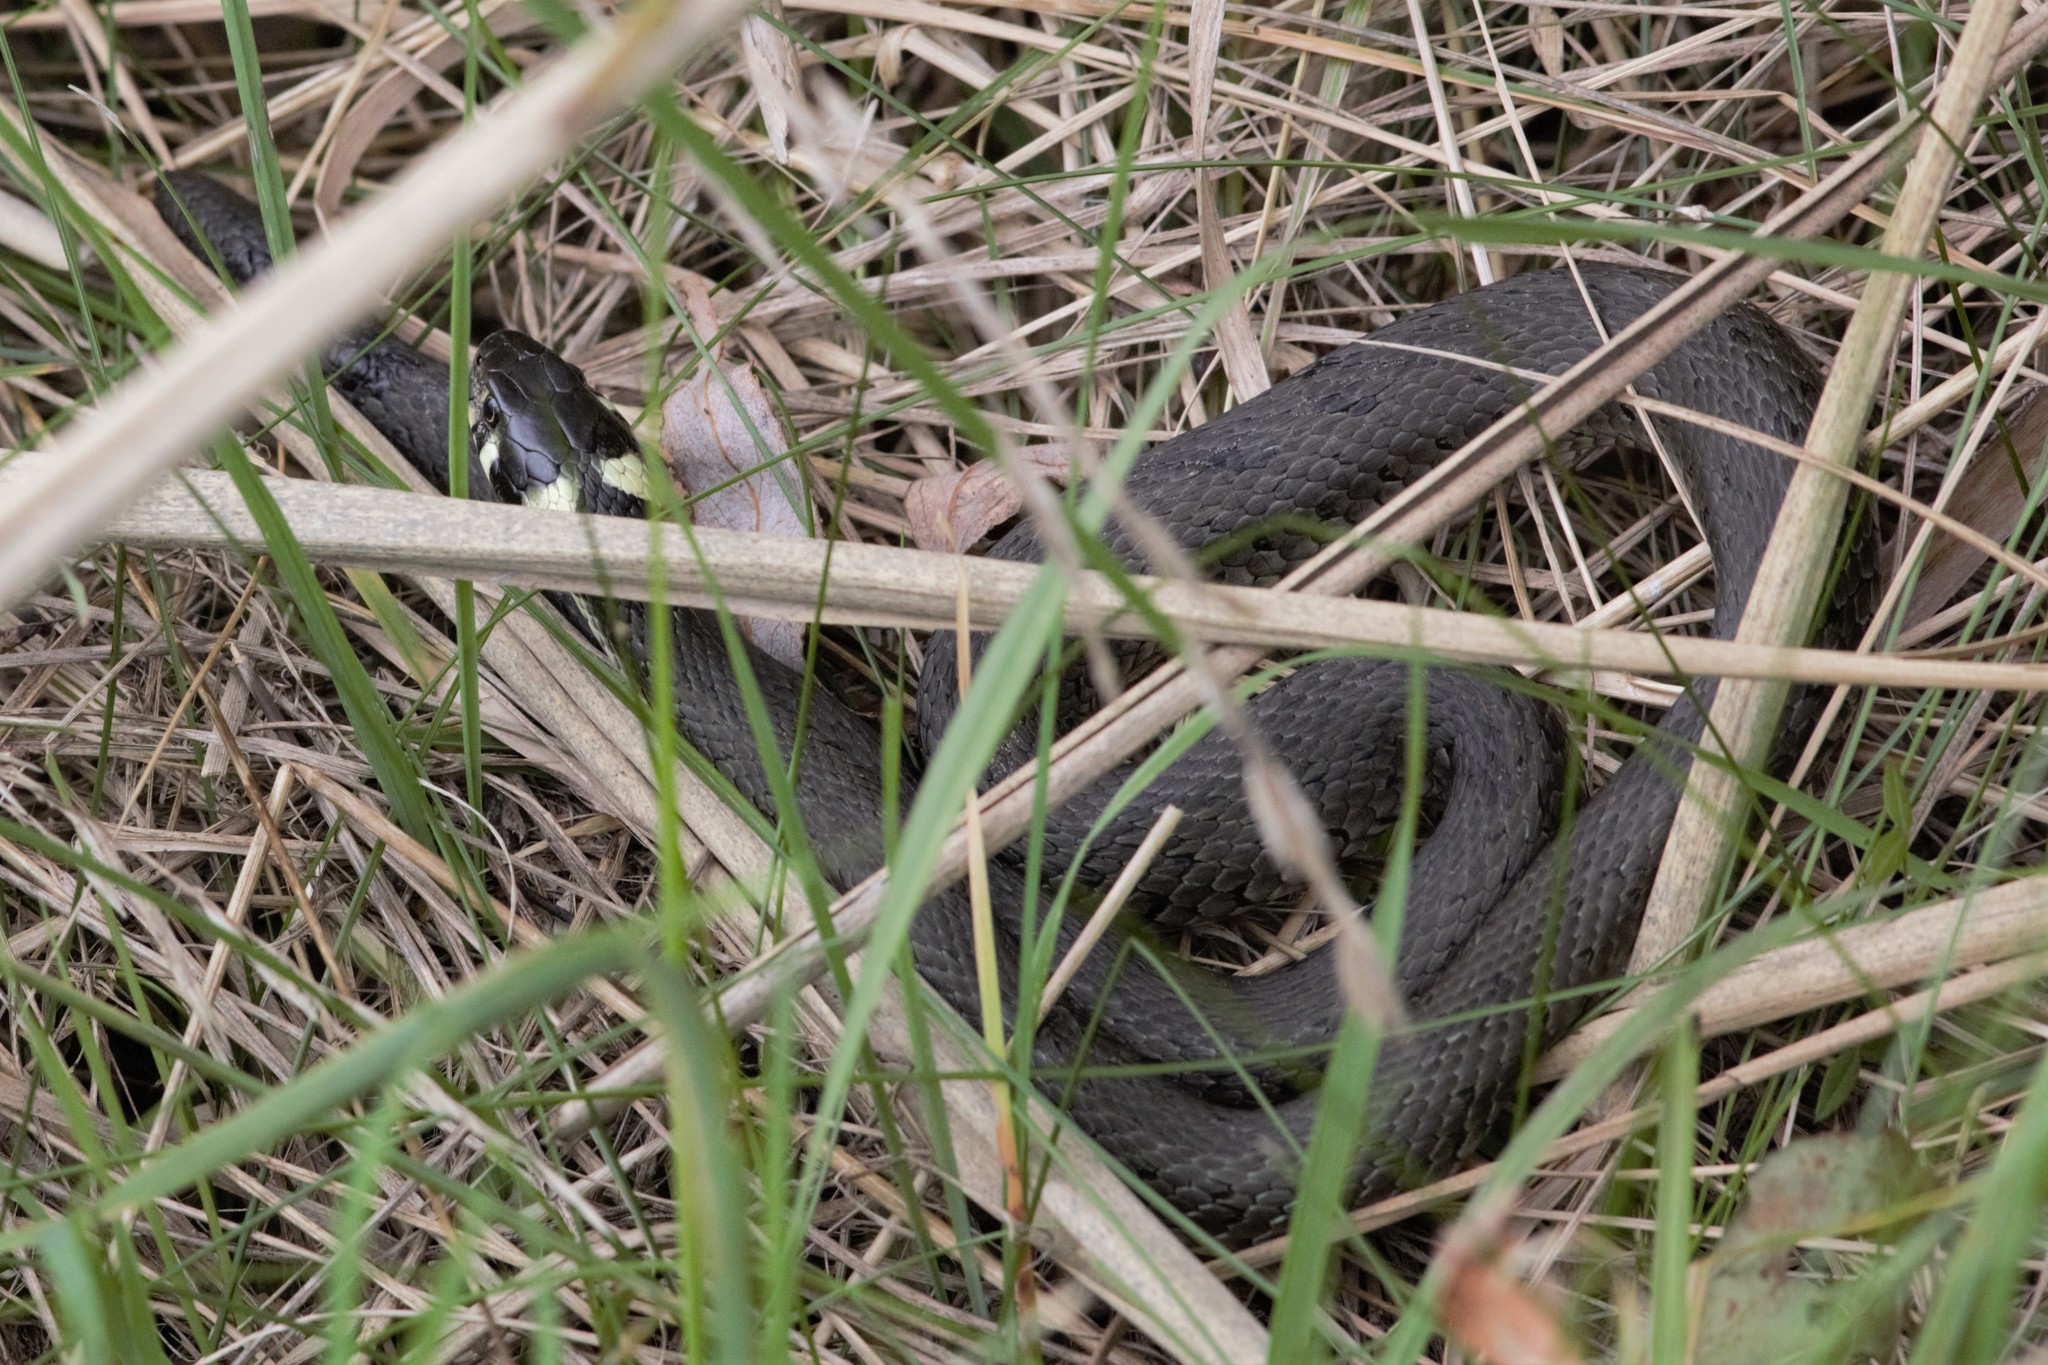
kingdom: Animalia
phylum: Chordata
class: Squamata
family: Colubridae
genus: Natrix
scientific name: Natrix natrix
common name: Grass snake
